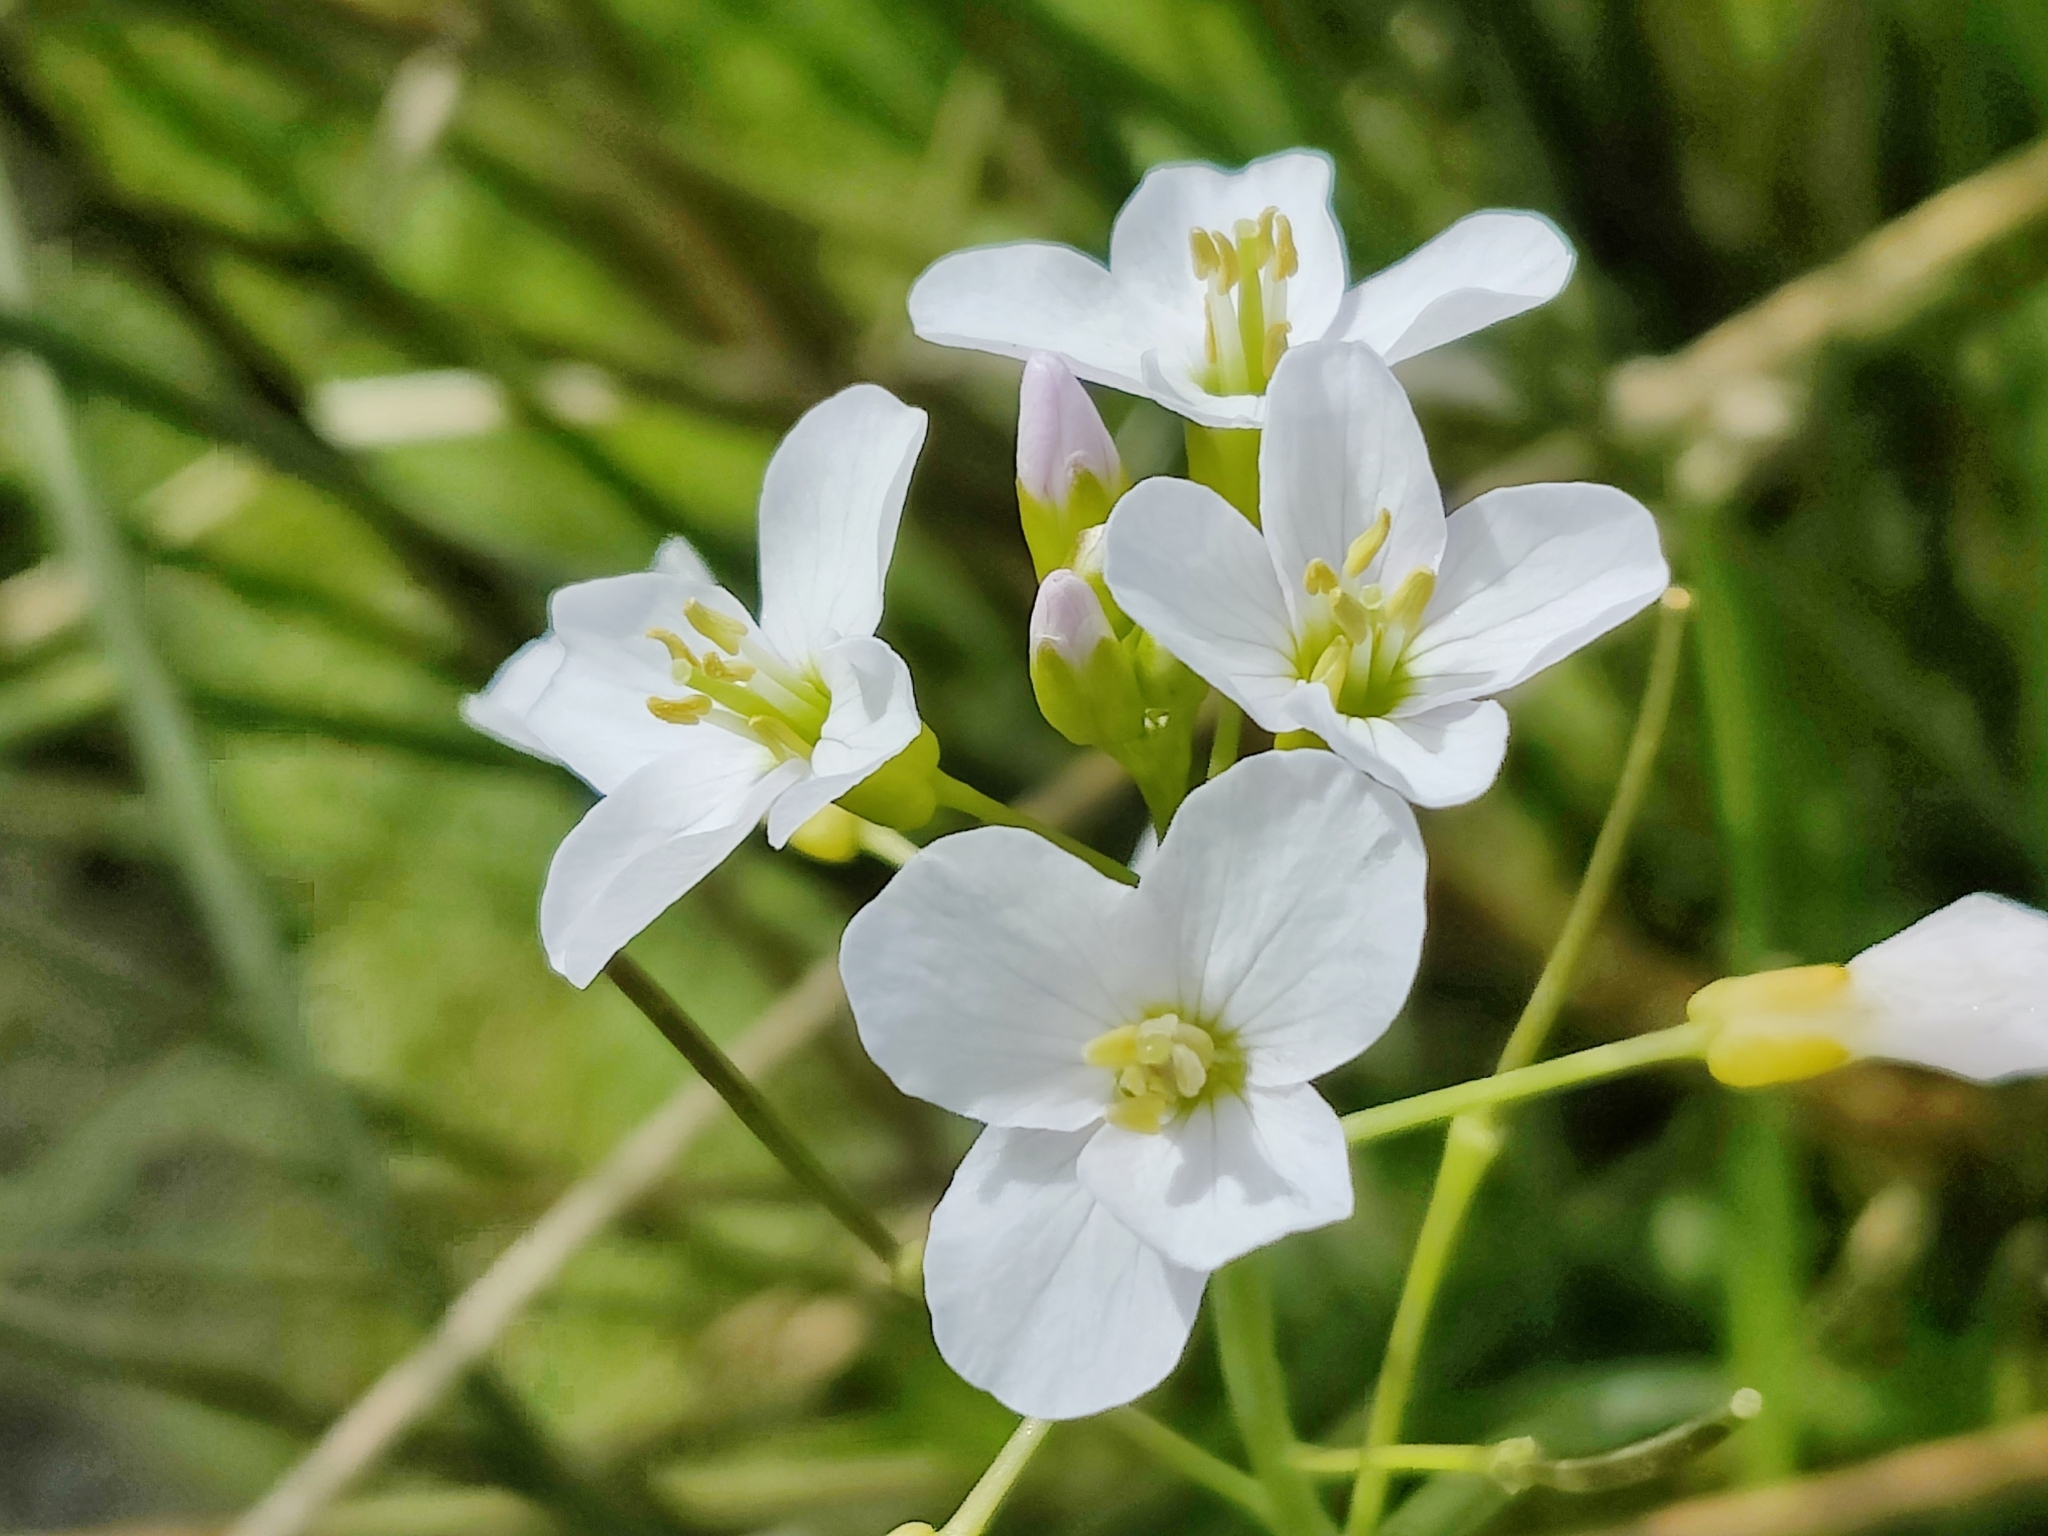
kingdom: Plantae
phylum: Tracheophyta
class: Magnoliopsida
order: Brassicales
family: Brassicaceae
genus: Cardamine
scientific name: Cardamine pratensis
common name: Cuckoo flower
